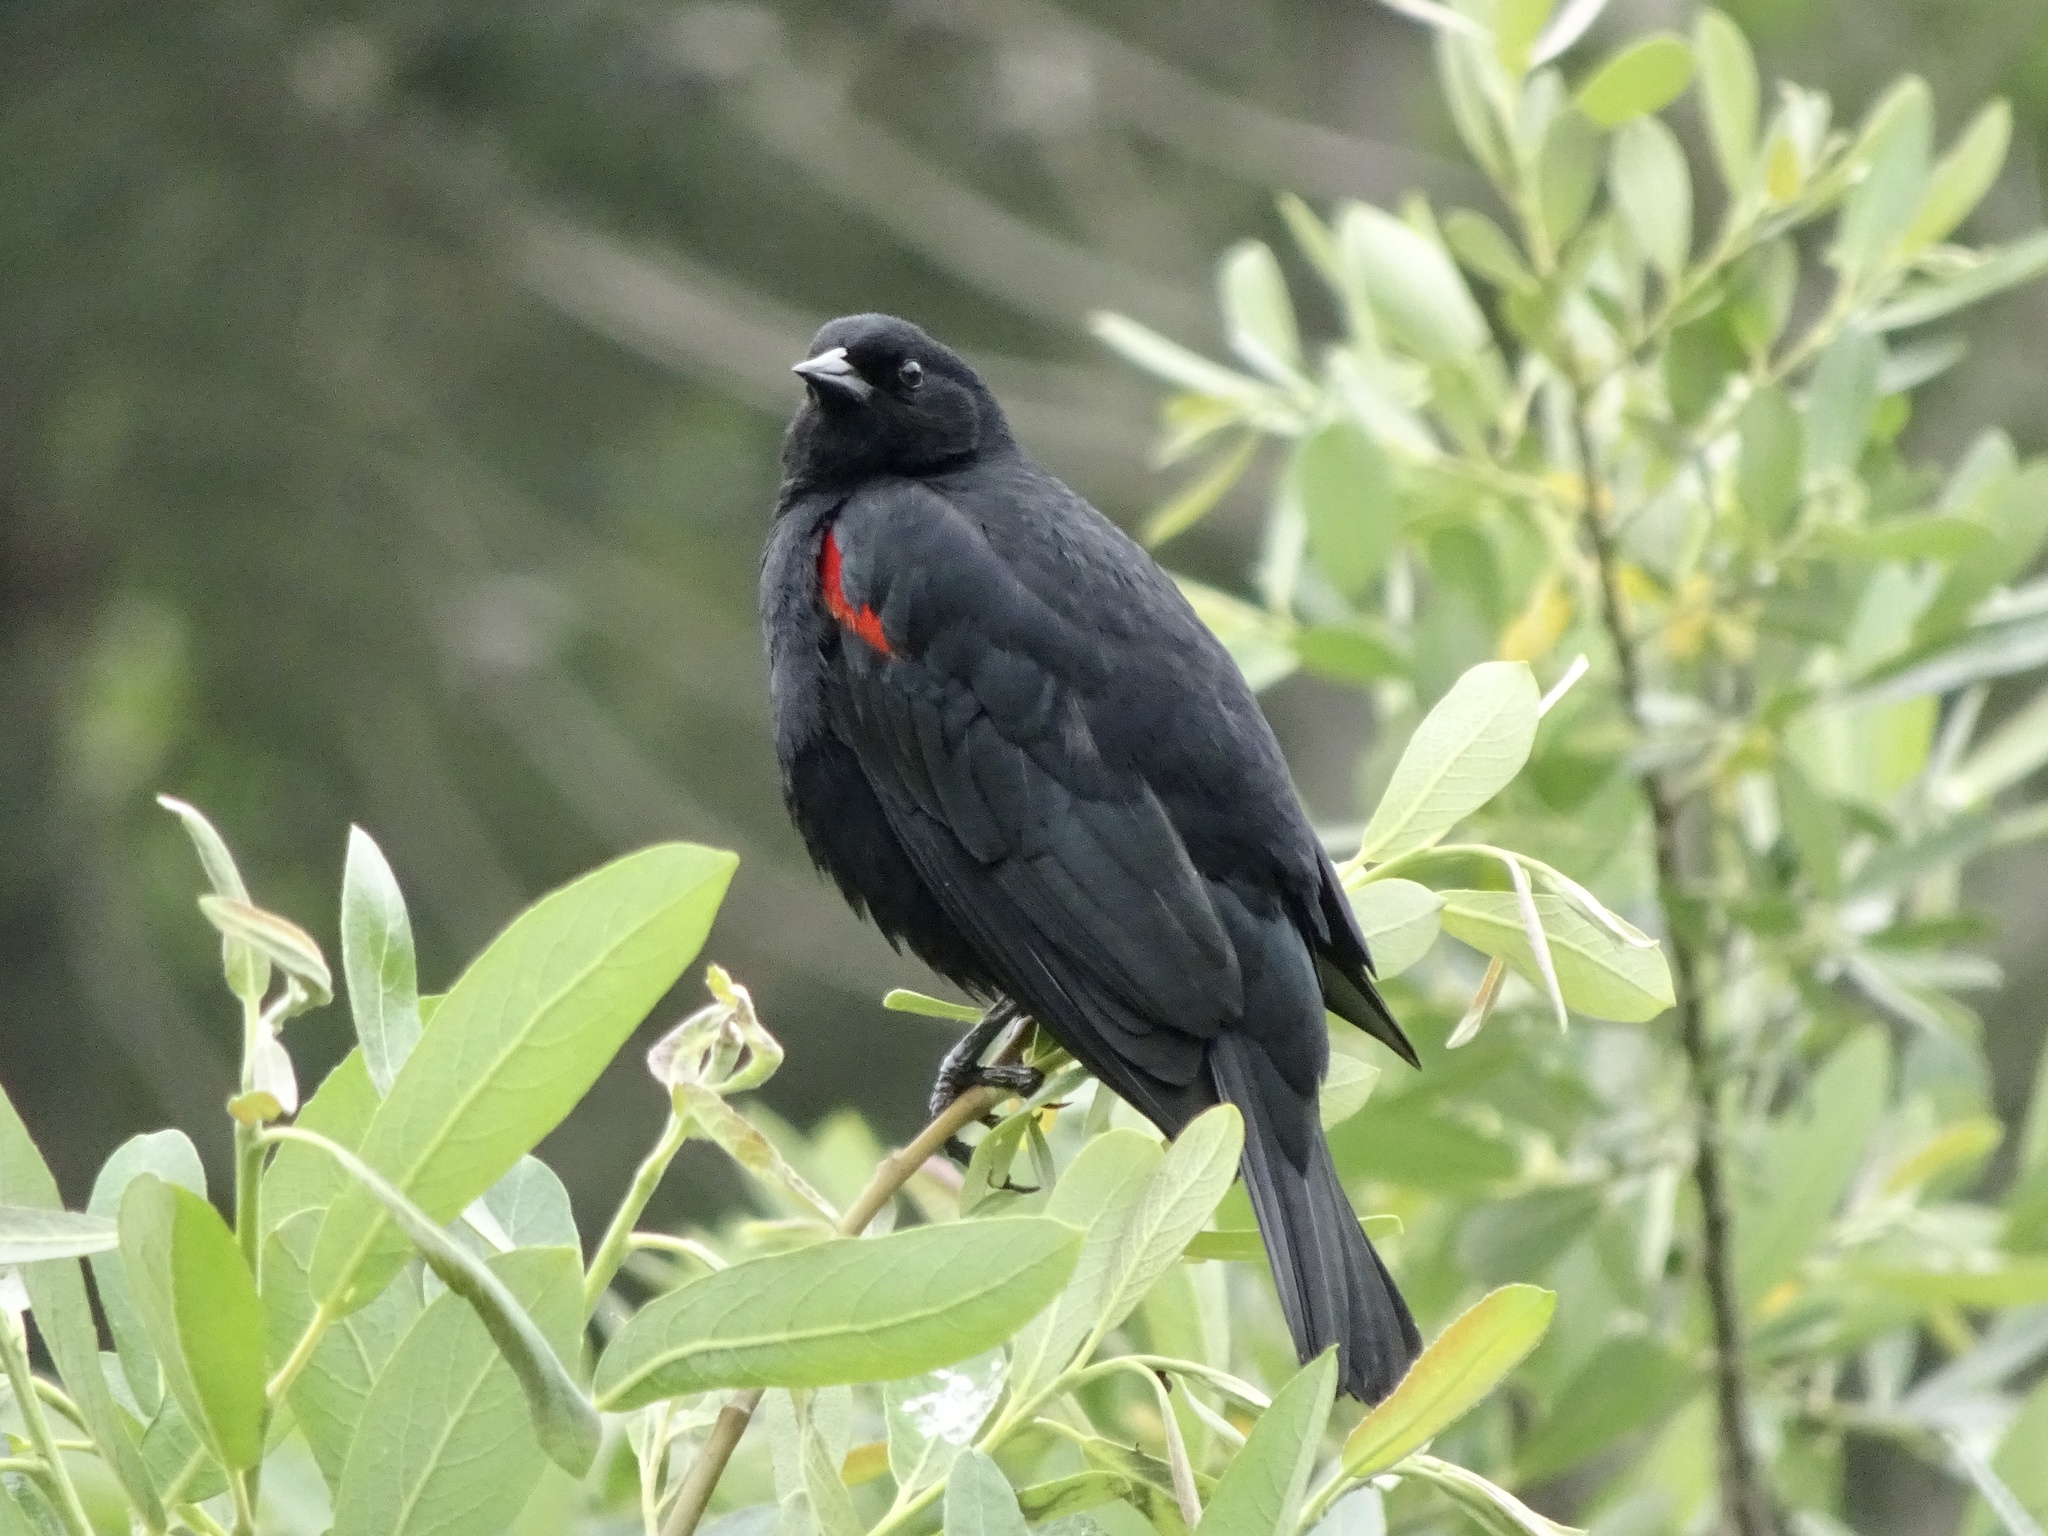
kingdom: Animalia
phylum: Chordata
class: Aves
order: Passeriformes
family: Icteridae
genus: Agelaius
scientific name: Agelaius phoeniceus
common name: Red-winged blackbird
